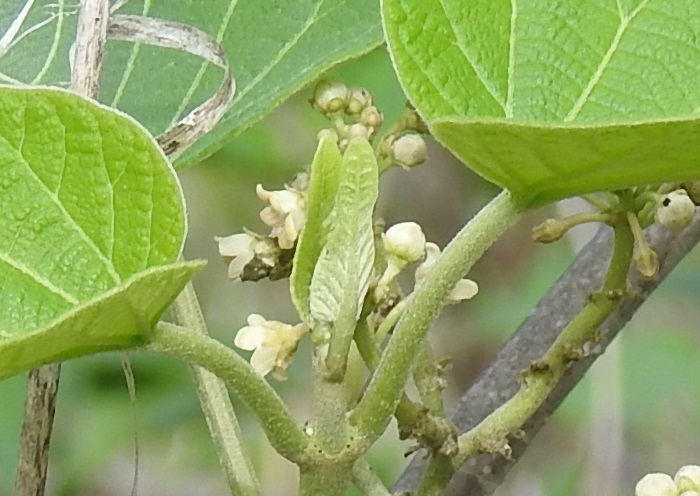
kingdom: Plantae
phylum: Tracheophyta
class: Magnoliopsida
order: Gentianales
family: Apocynaceae
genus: Ruehssia
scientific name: Ruehssia gualanensis
